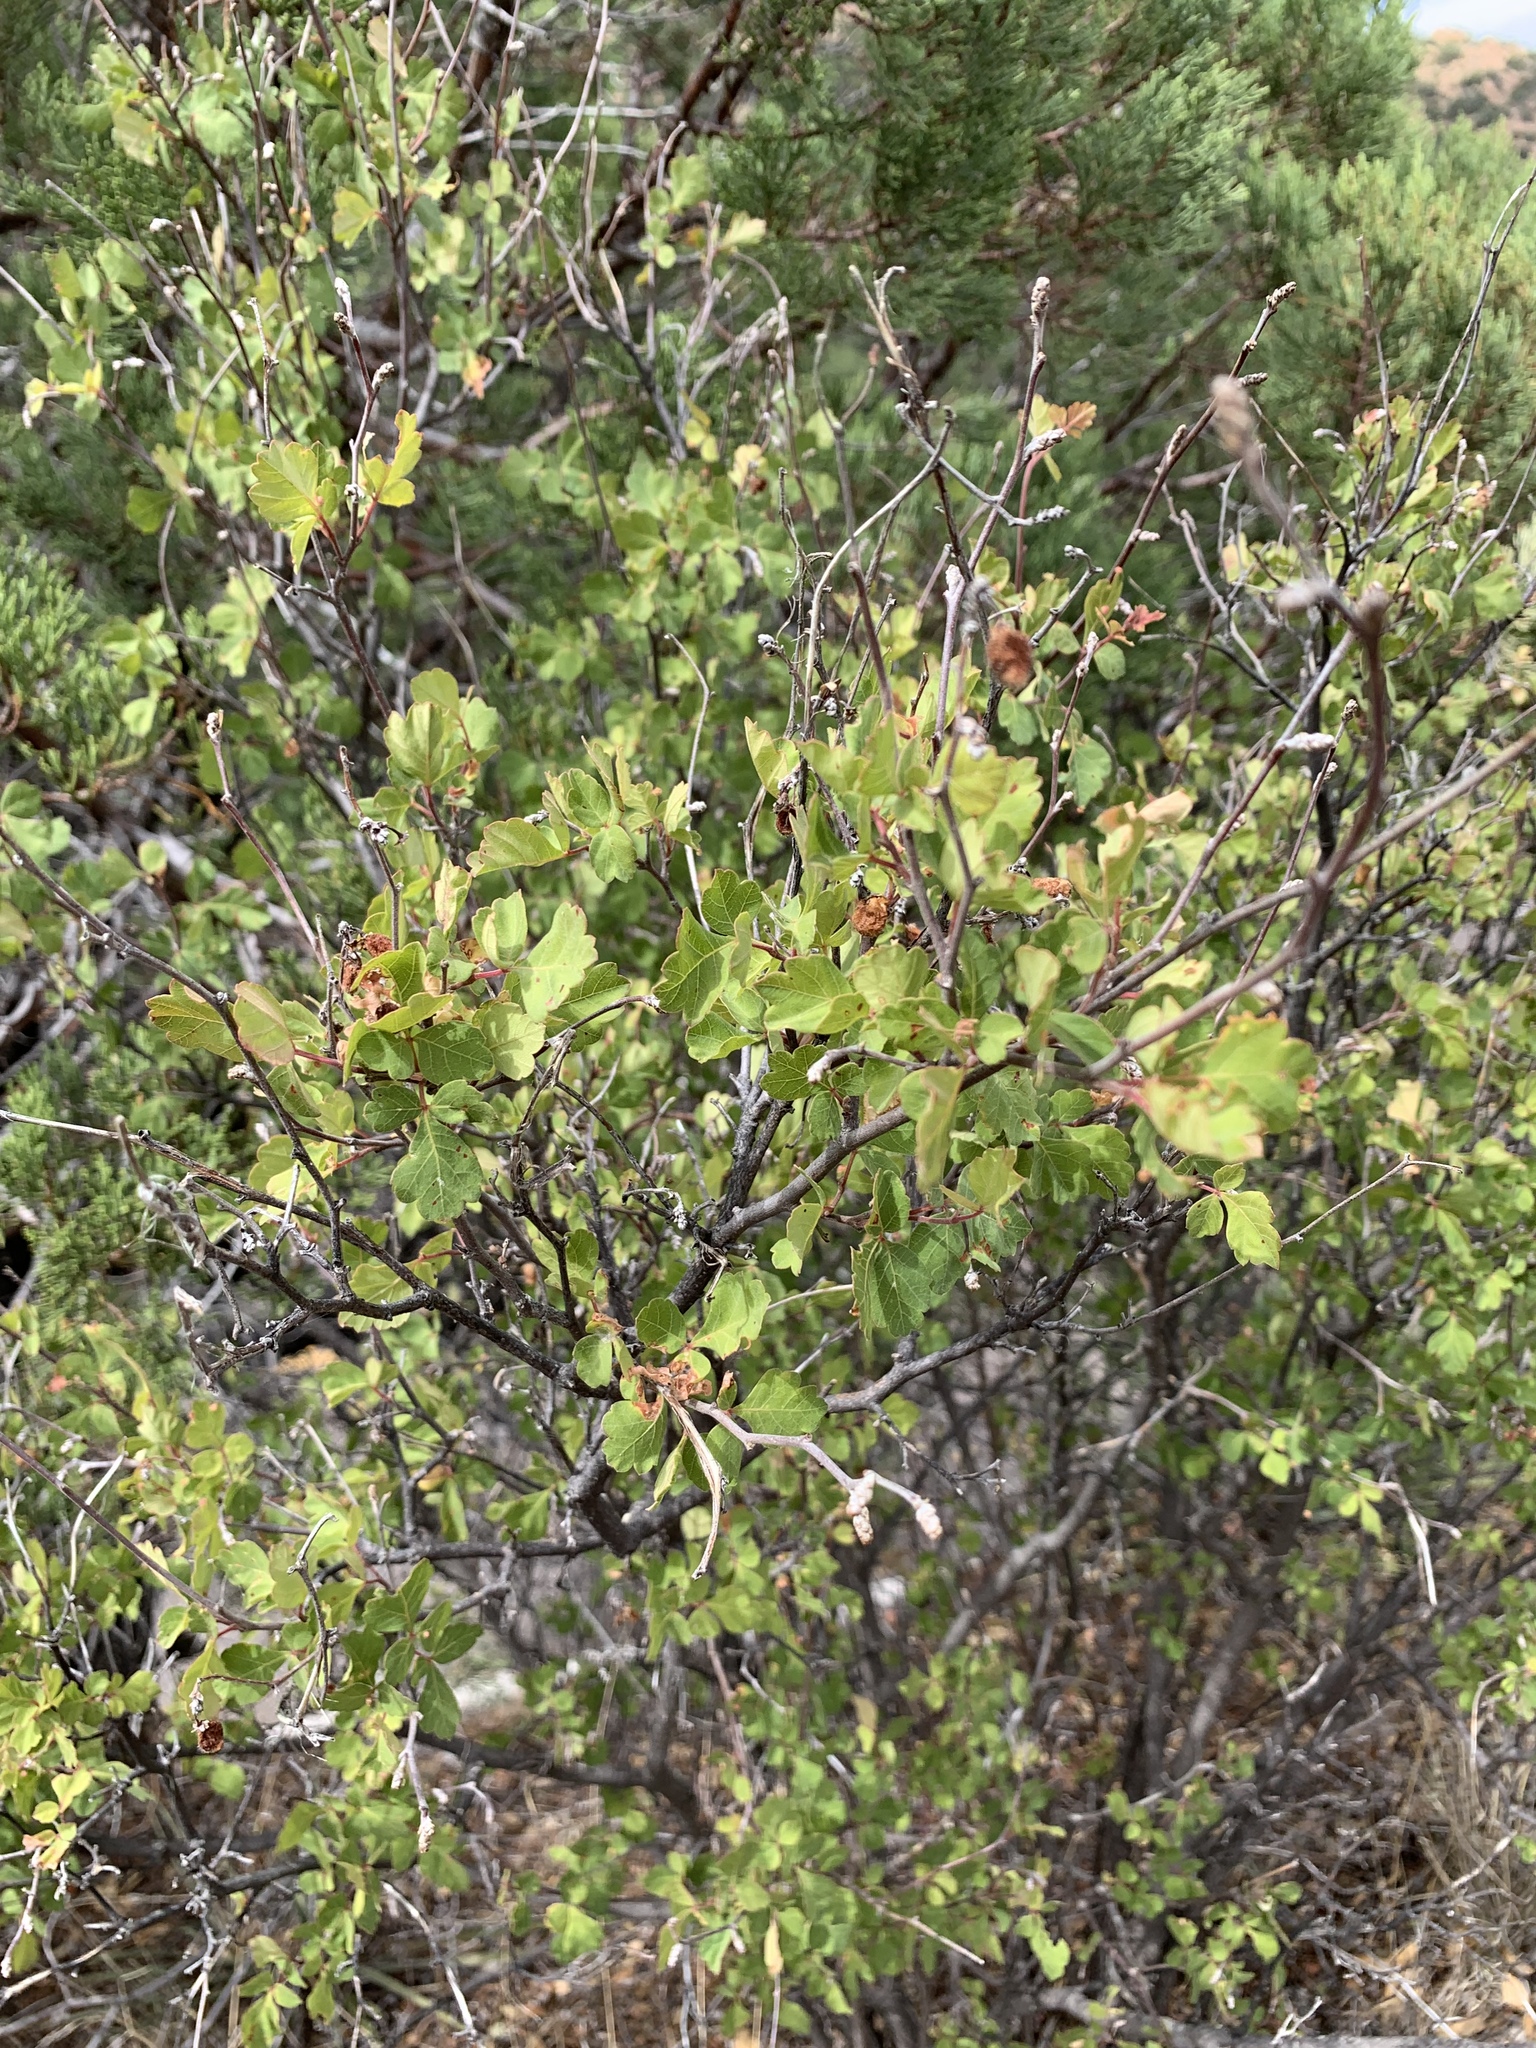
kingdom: Plantae
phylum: Tracheophyta
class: Magnoliopsida
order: Sapindales
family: Anacardiaceae
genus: Rhus
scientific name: Rhus aromatica
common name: Aromatic sumac
